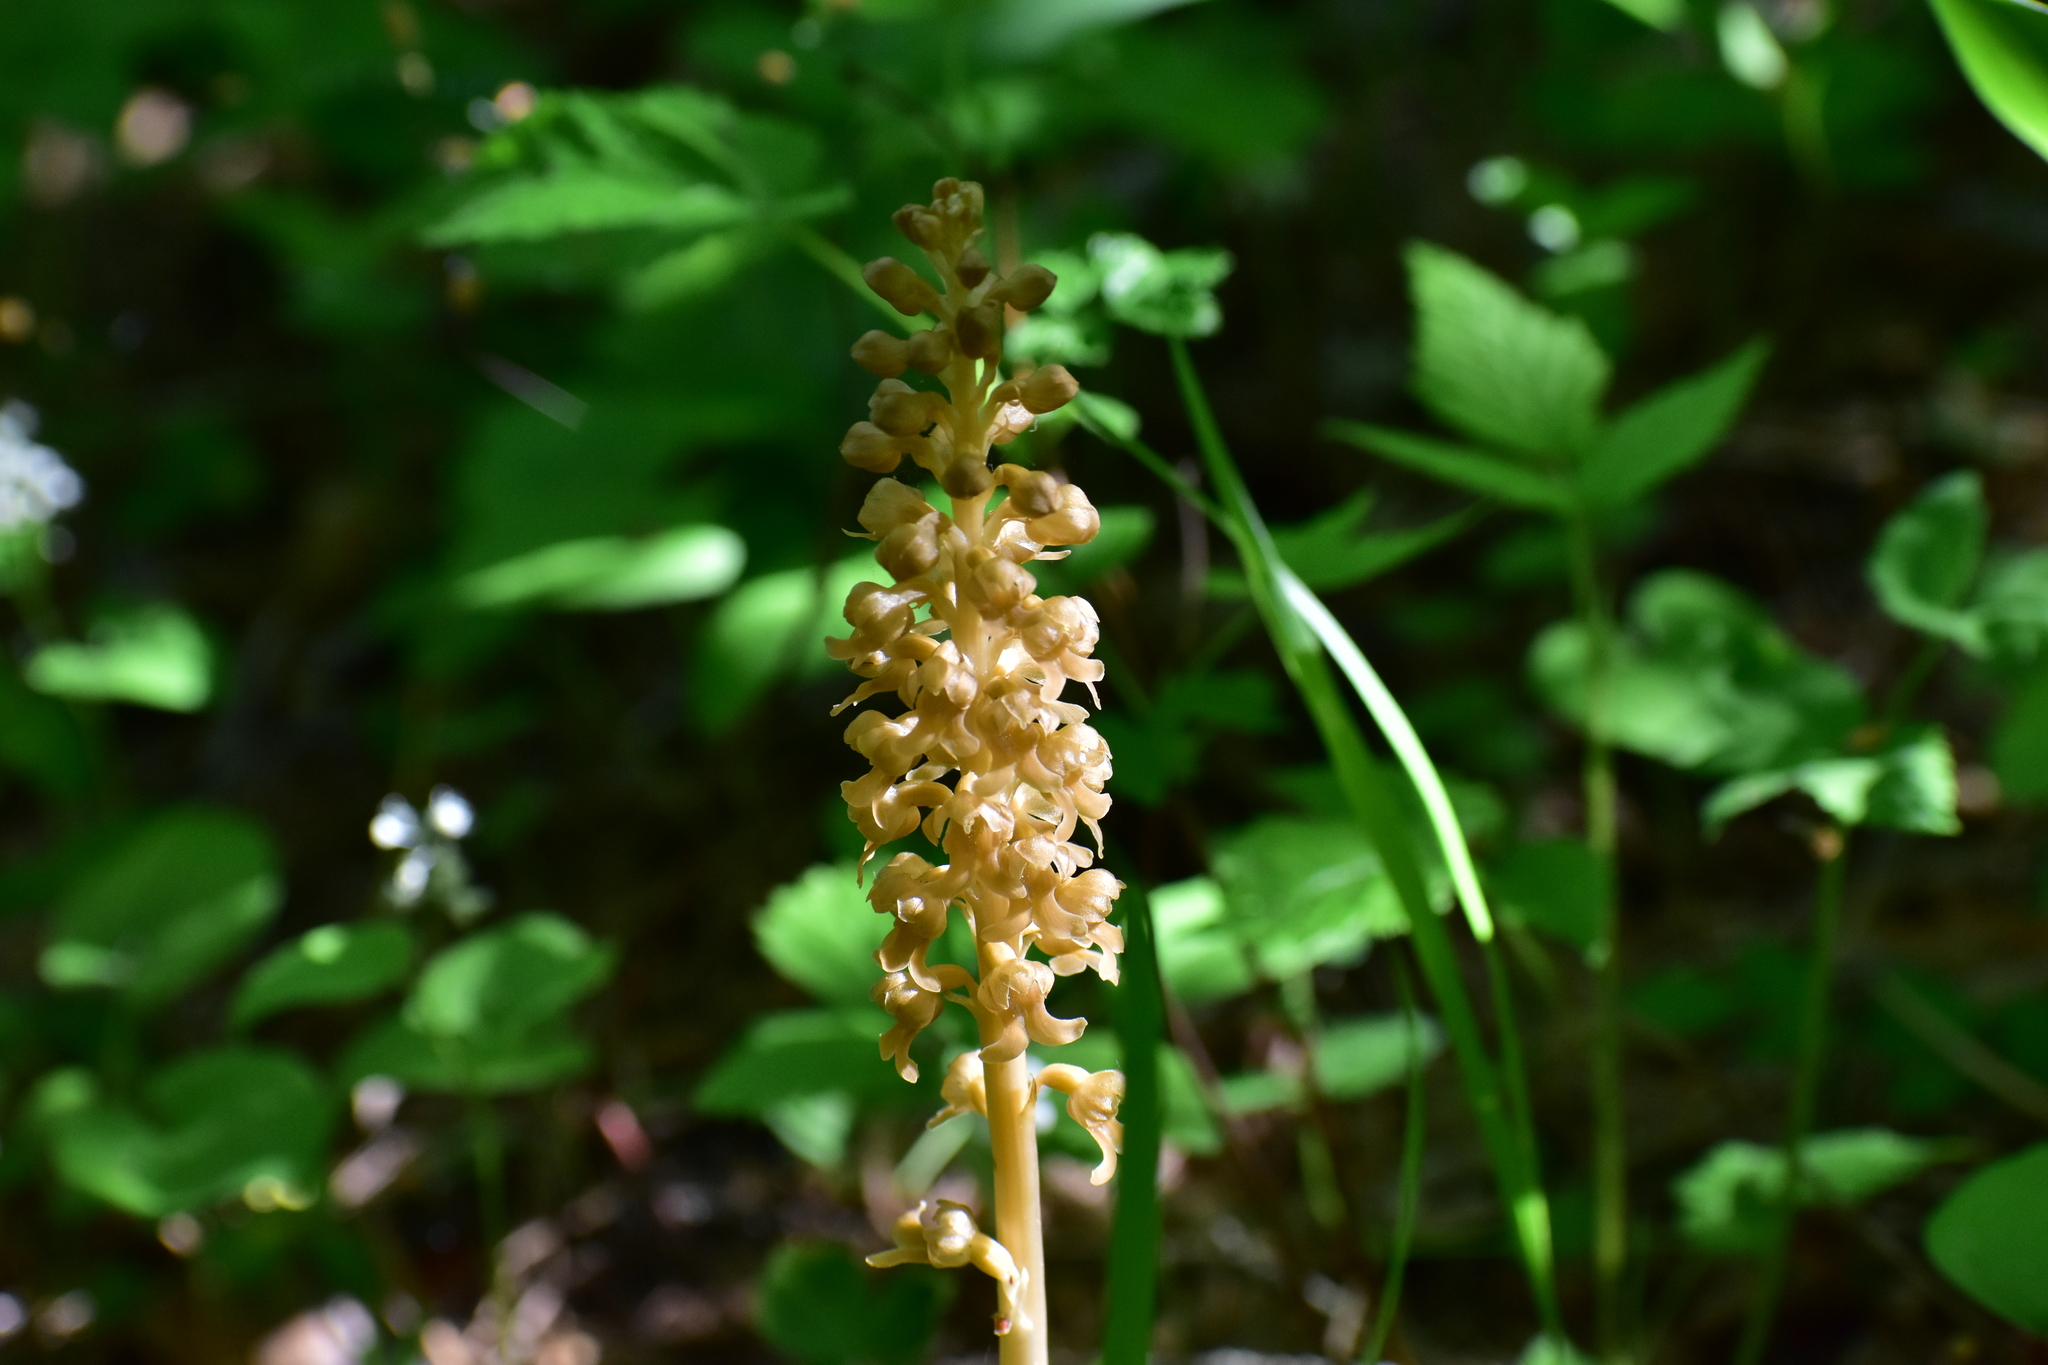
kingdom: Plantae
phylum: Tracheophyta
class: Liliopsida
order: Asparagales
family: Orchidaceae
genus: Neottia
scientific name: Neottia nidus-avis
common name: Bird's-nest orchid
